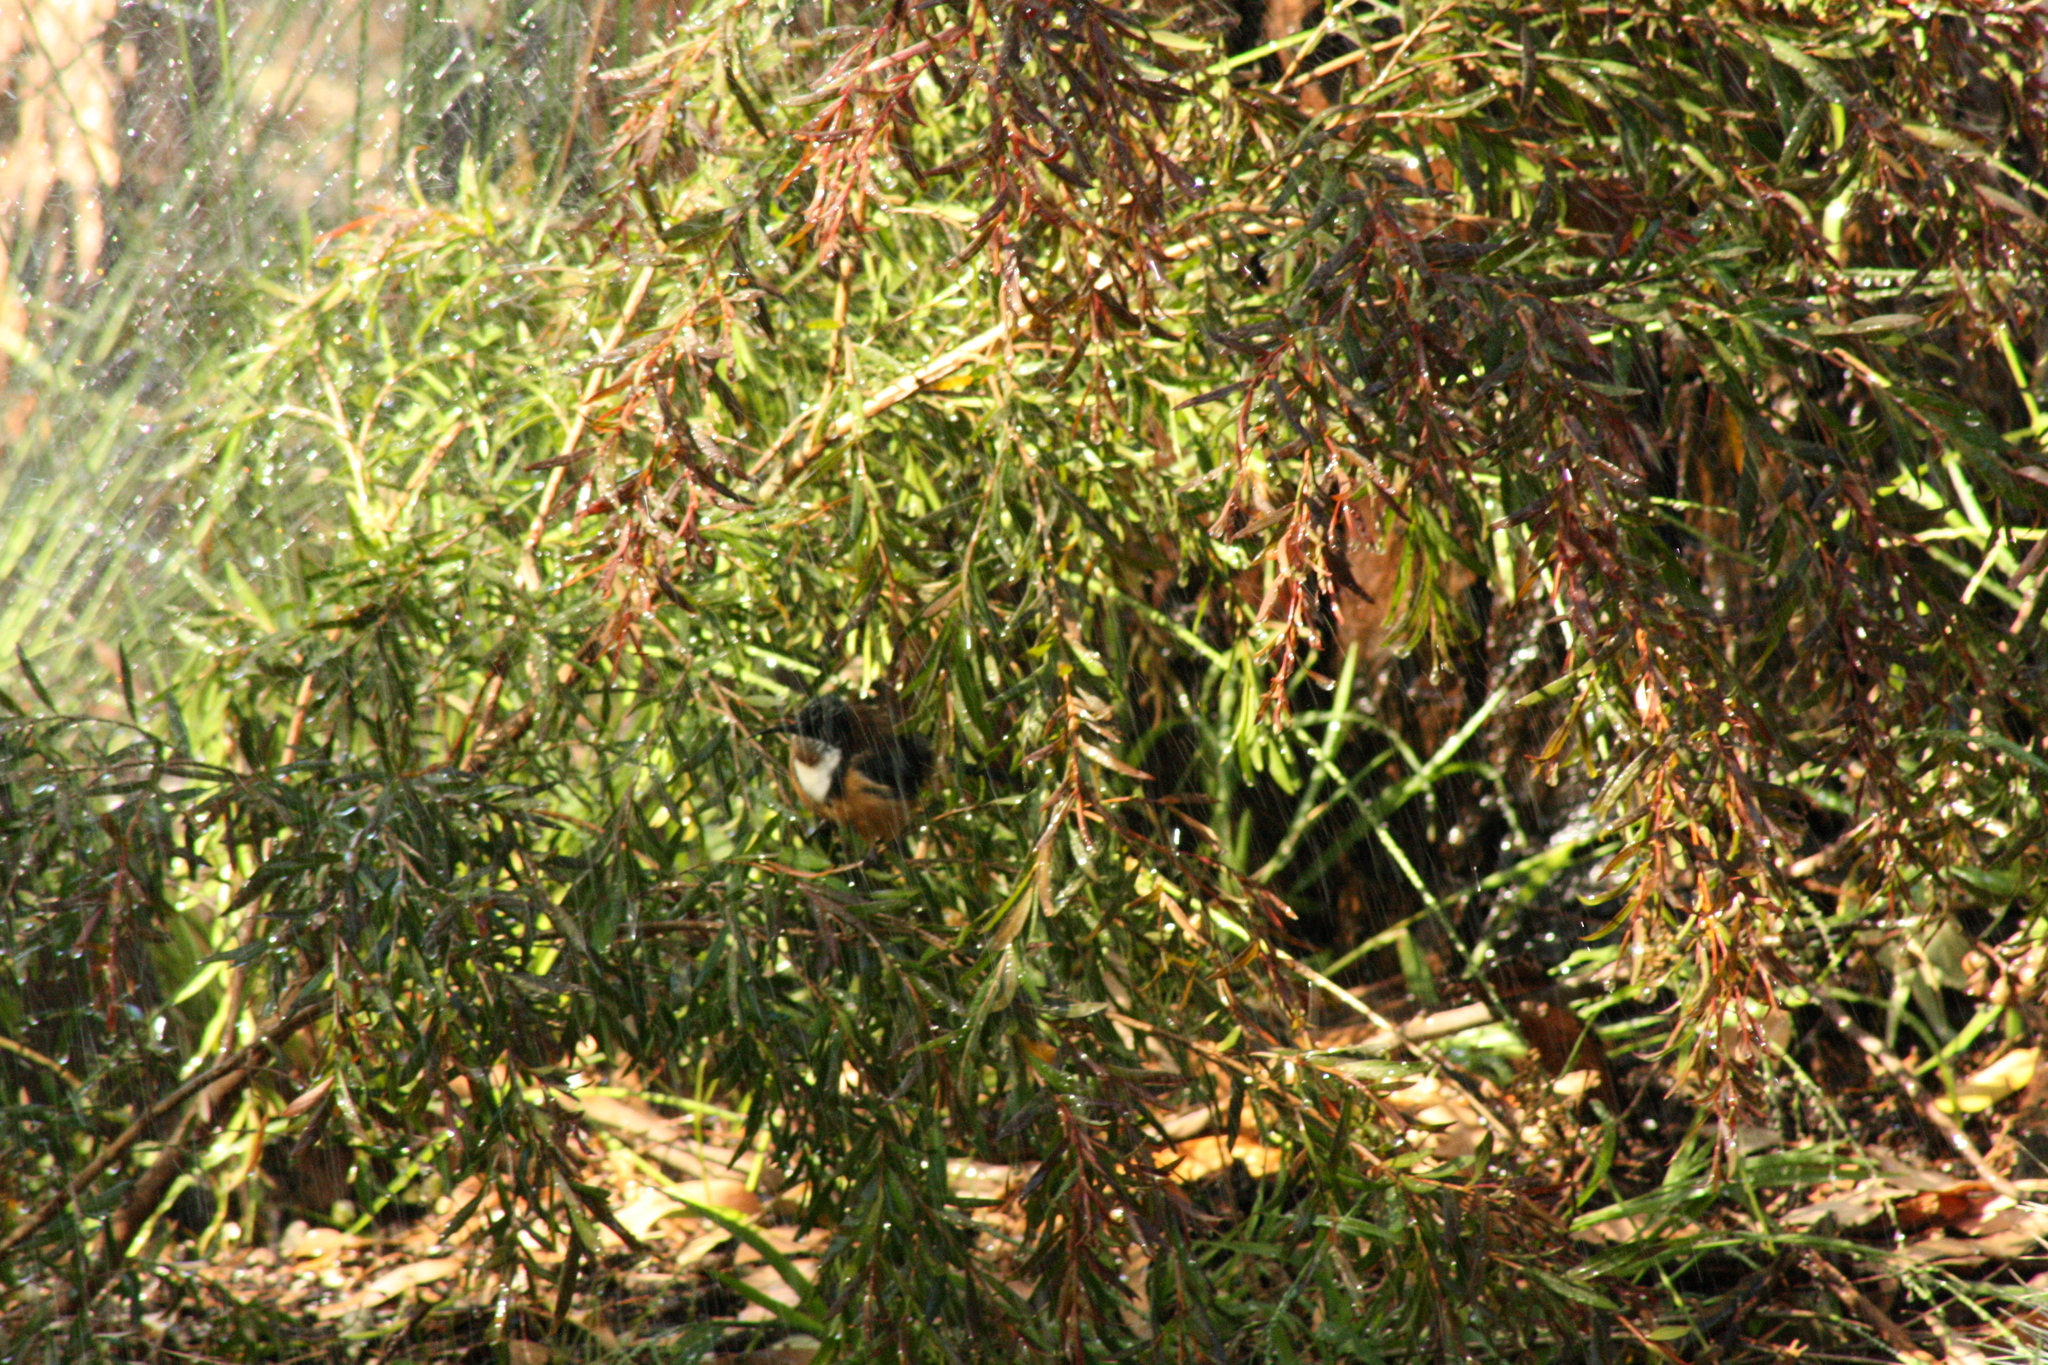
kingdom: Animalia
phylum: Chordata
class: Aves
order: Passeriformes
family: Meliphagidae
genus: Acanthorhynchus
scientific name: Acanthorhynchus tenuirostris
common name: Eastern spinebill
